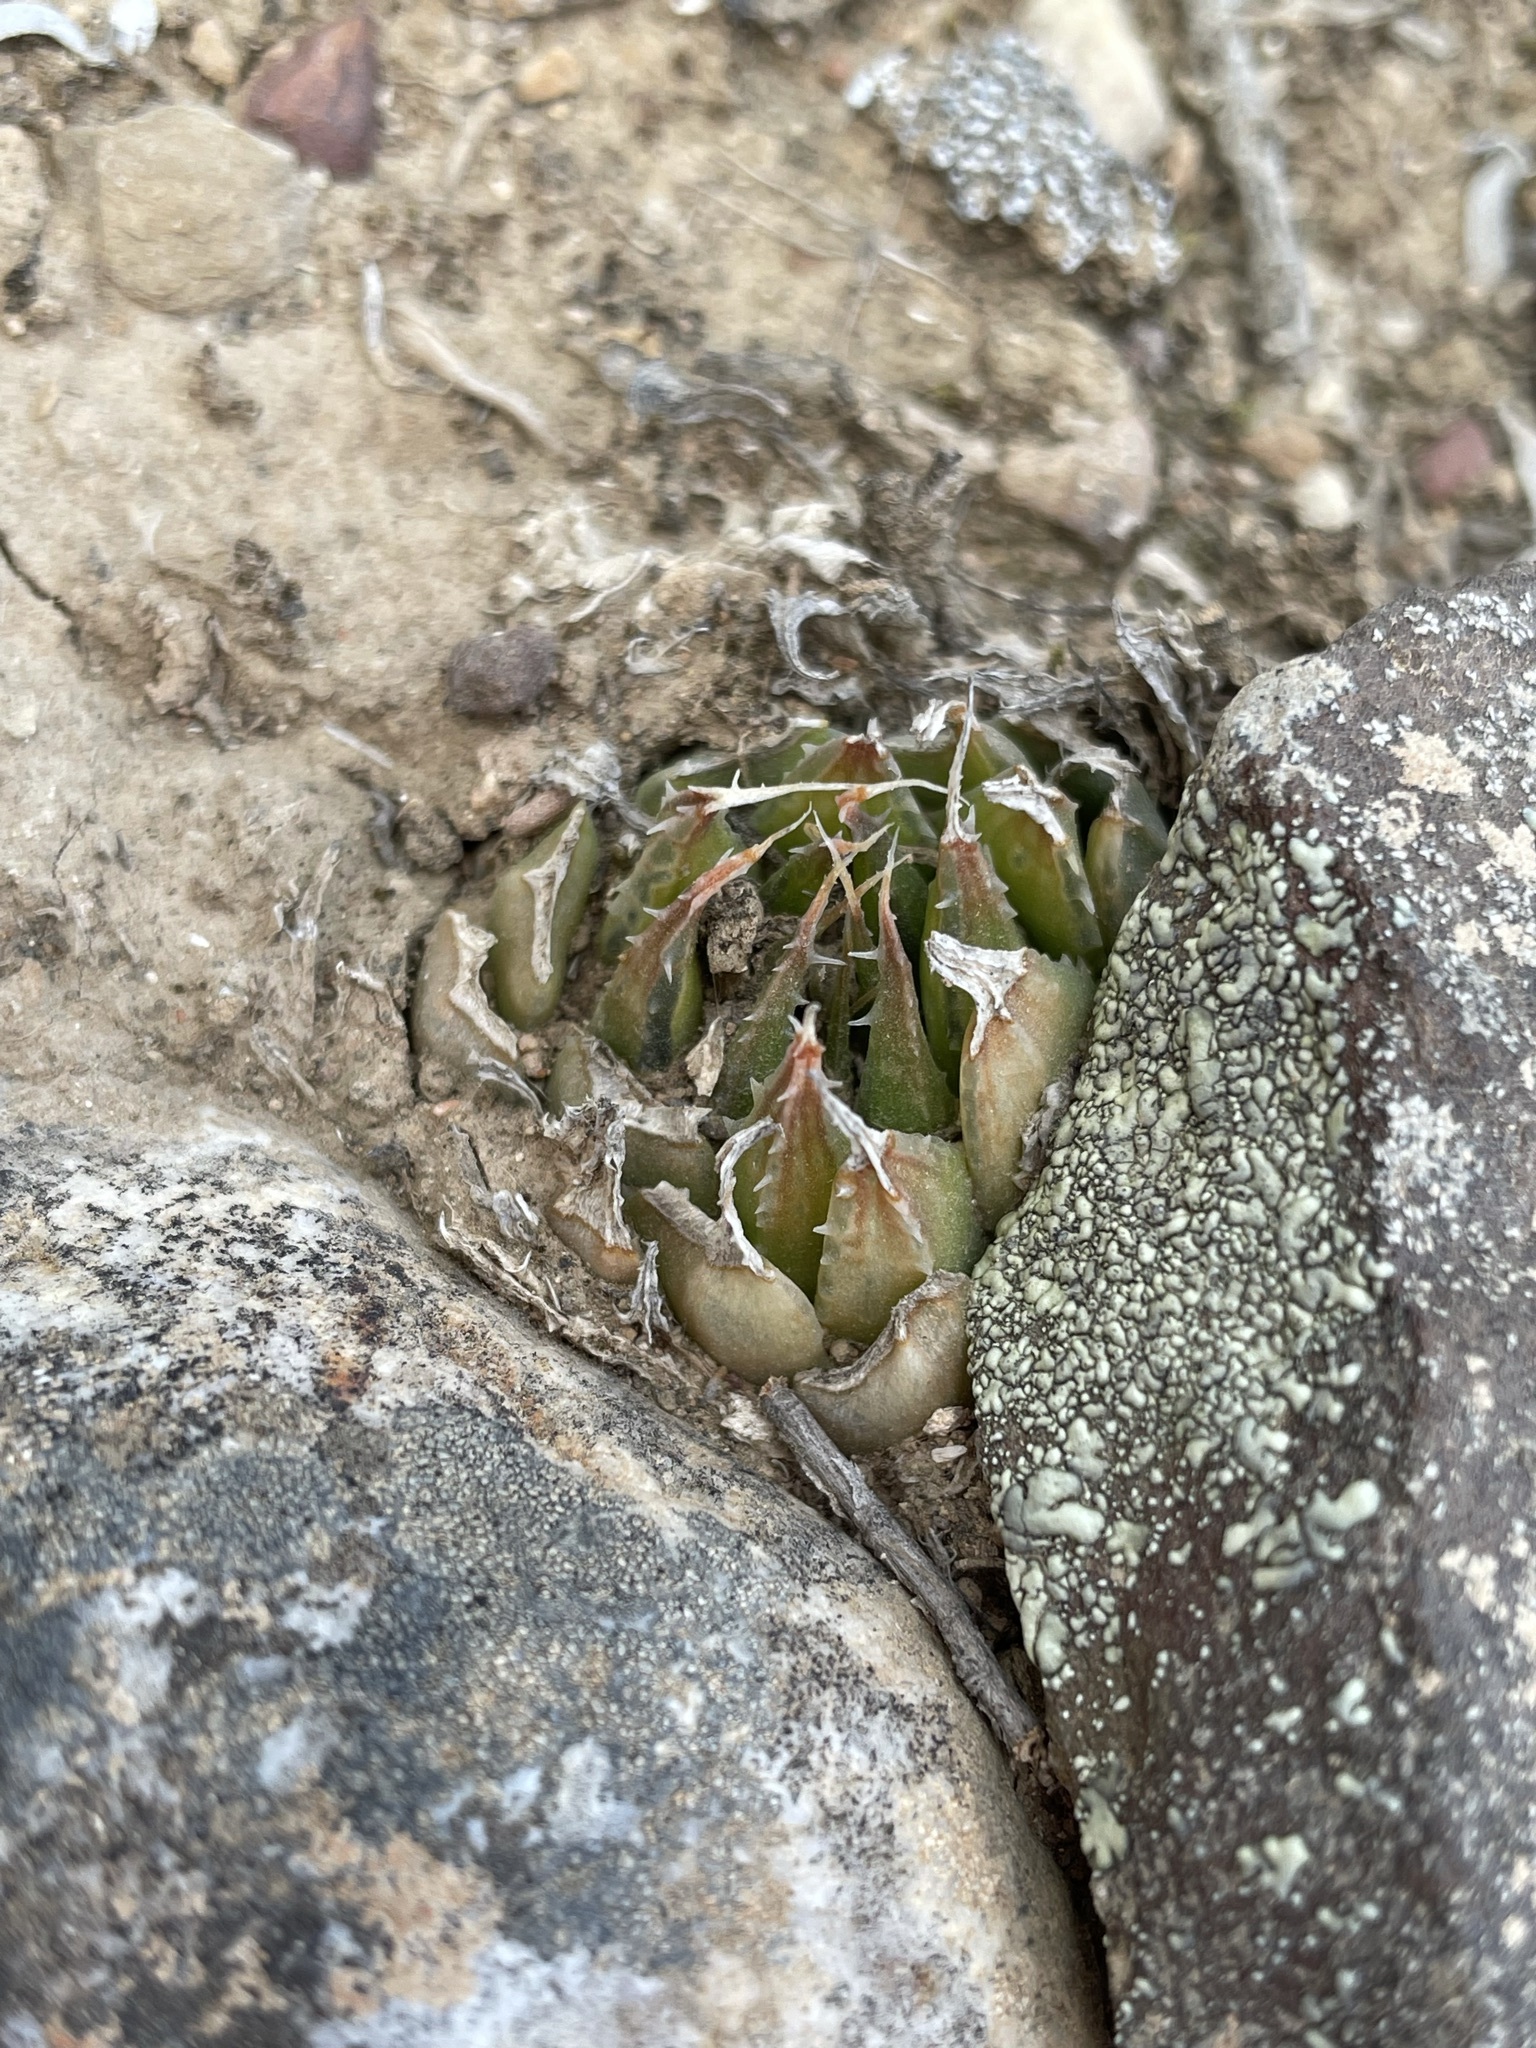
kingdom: Plantae
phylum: Tracheophyta
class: Liliopsida
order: Asparagales
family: Asphodelaceae
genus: Haworthia
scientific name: Haworthia arachnoidea
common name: Cobweb-aloe
